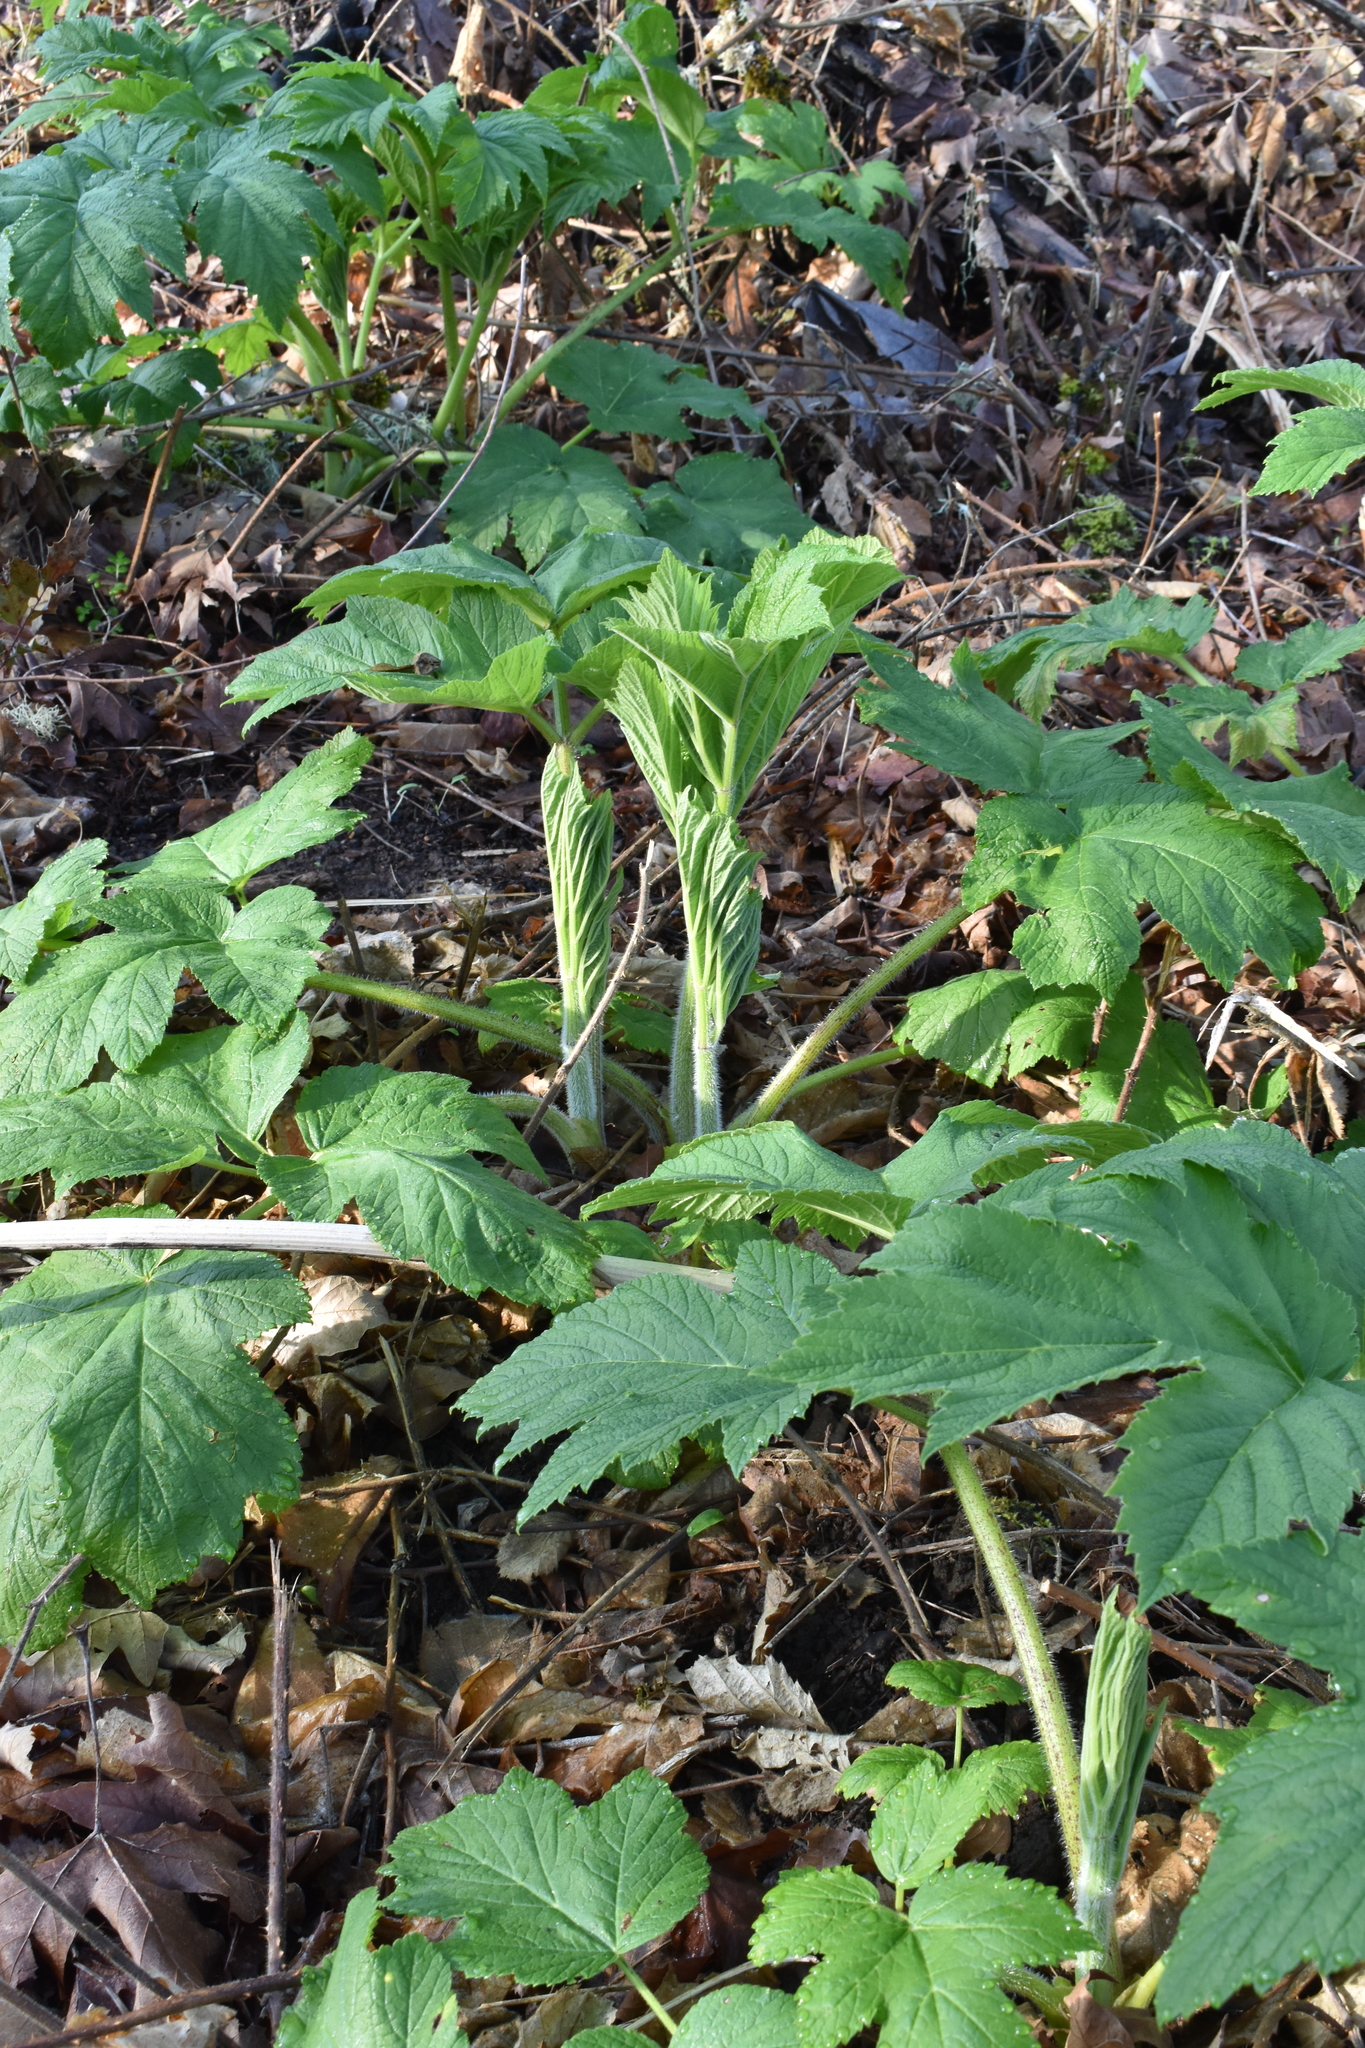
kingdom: Plantae
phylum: Tracheophyta
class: Magnoliopsida
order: Apiales
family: Apiaceae
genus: Heracleum
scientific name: Heracleum maximum
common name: American cow parsnip
